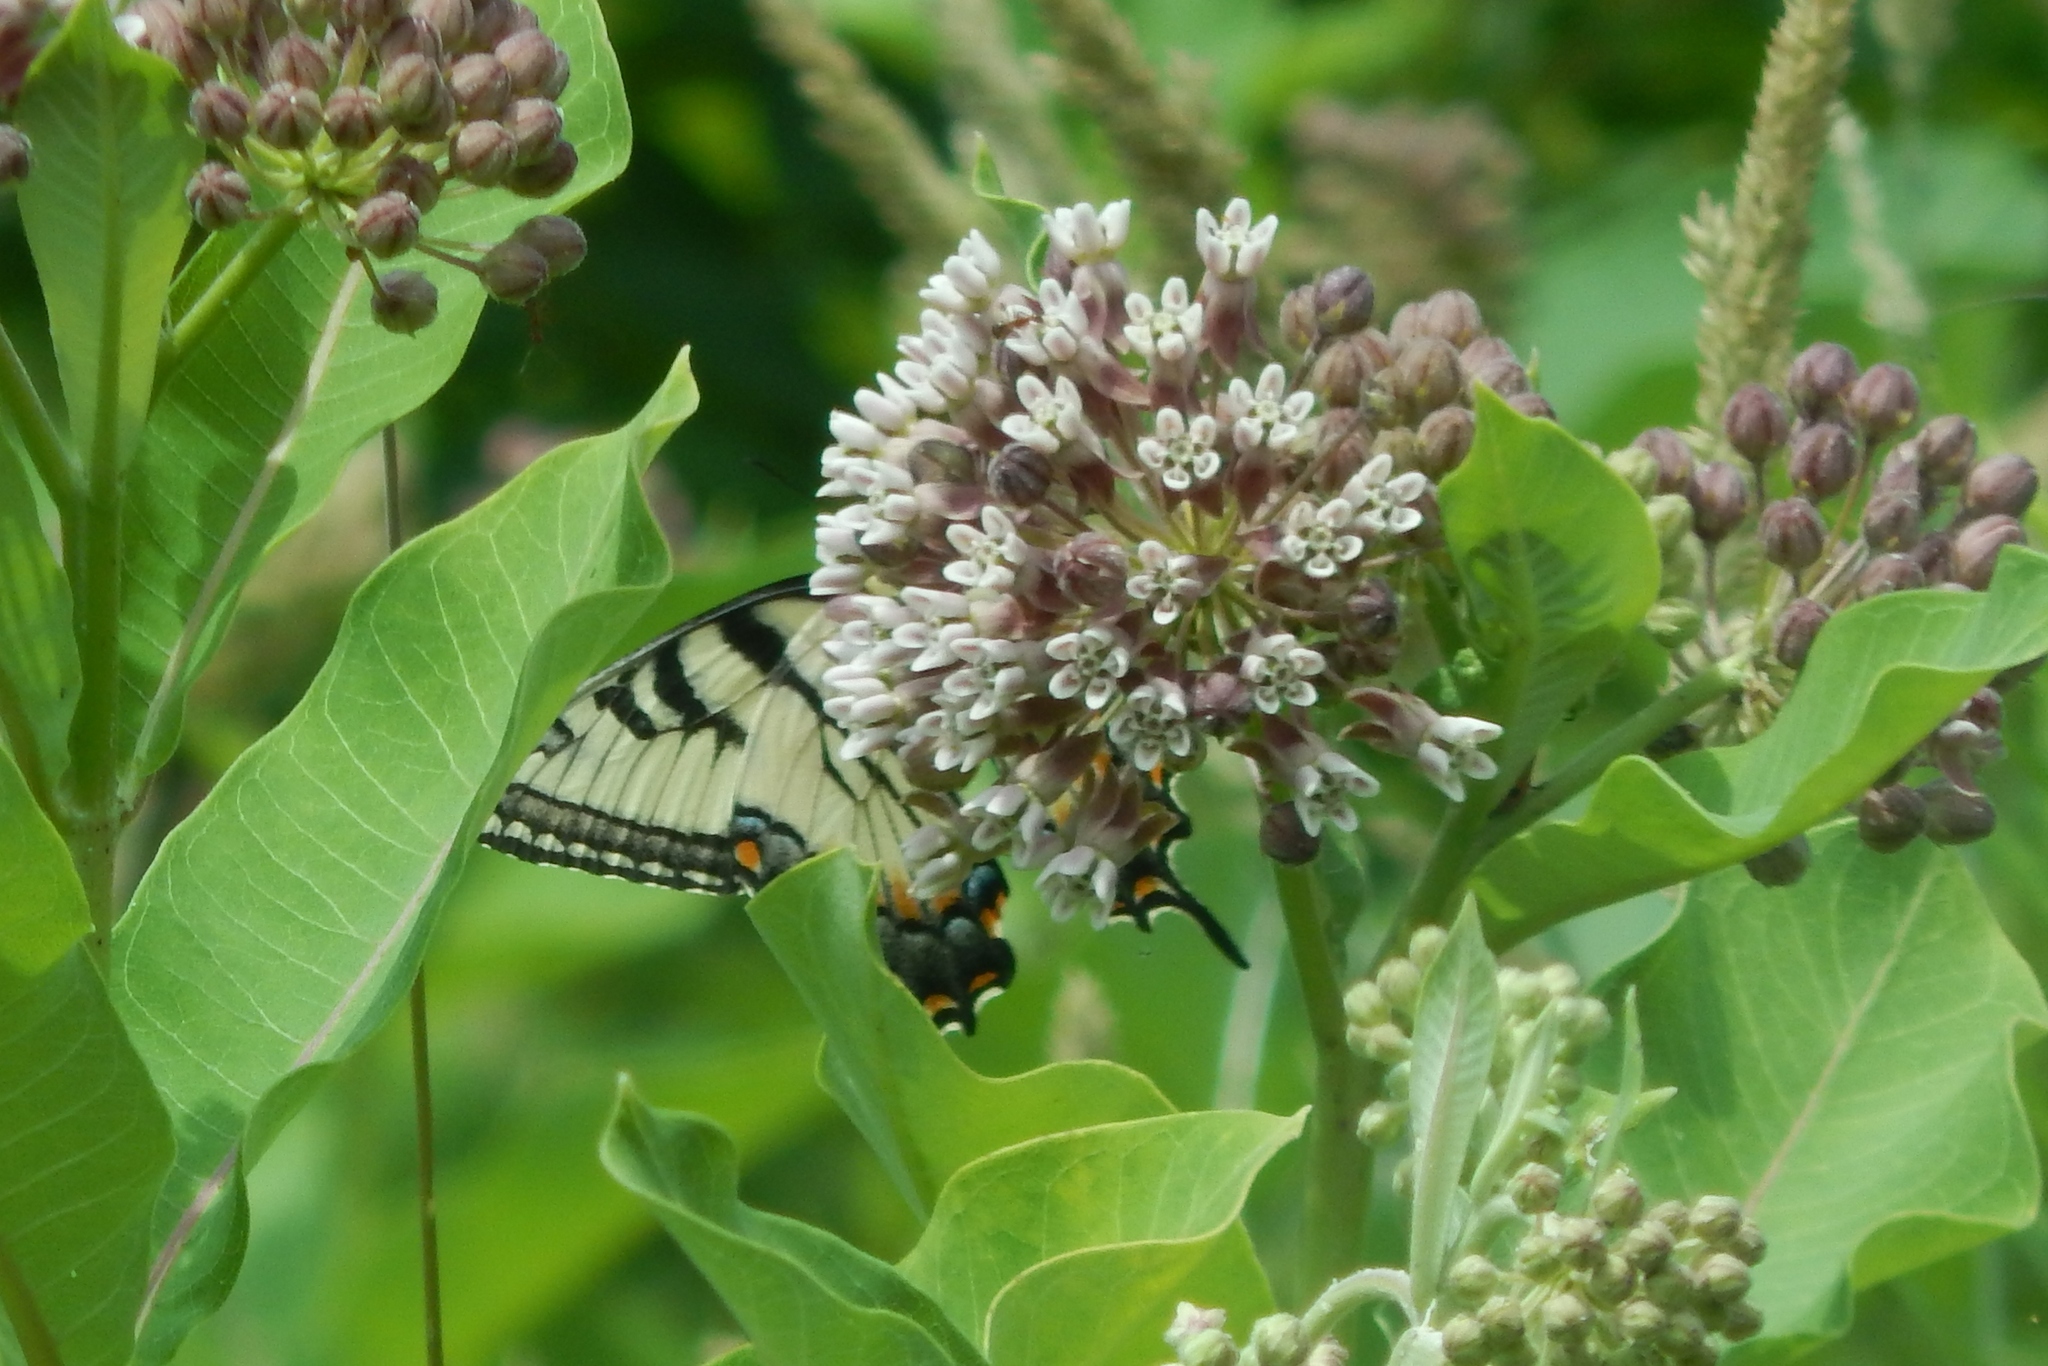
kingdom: Animalia
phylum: Arthropoda
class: Insecta
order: Lepidoptera
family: Papilionidae
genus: Papilio
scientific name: Papilio glaucus
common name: Tiger swallowtail
